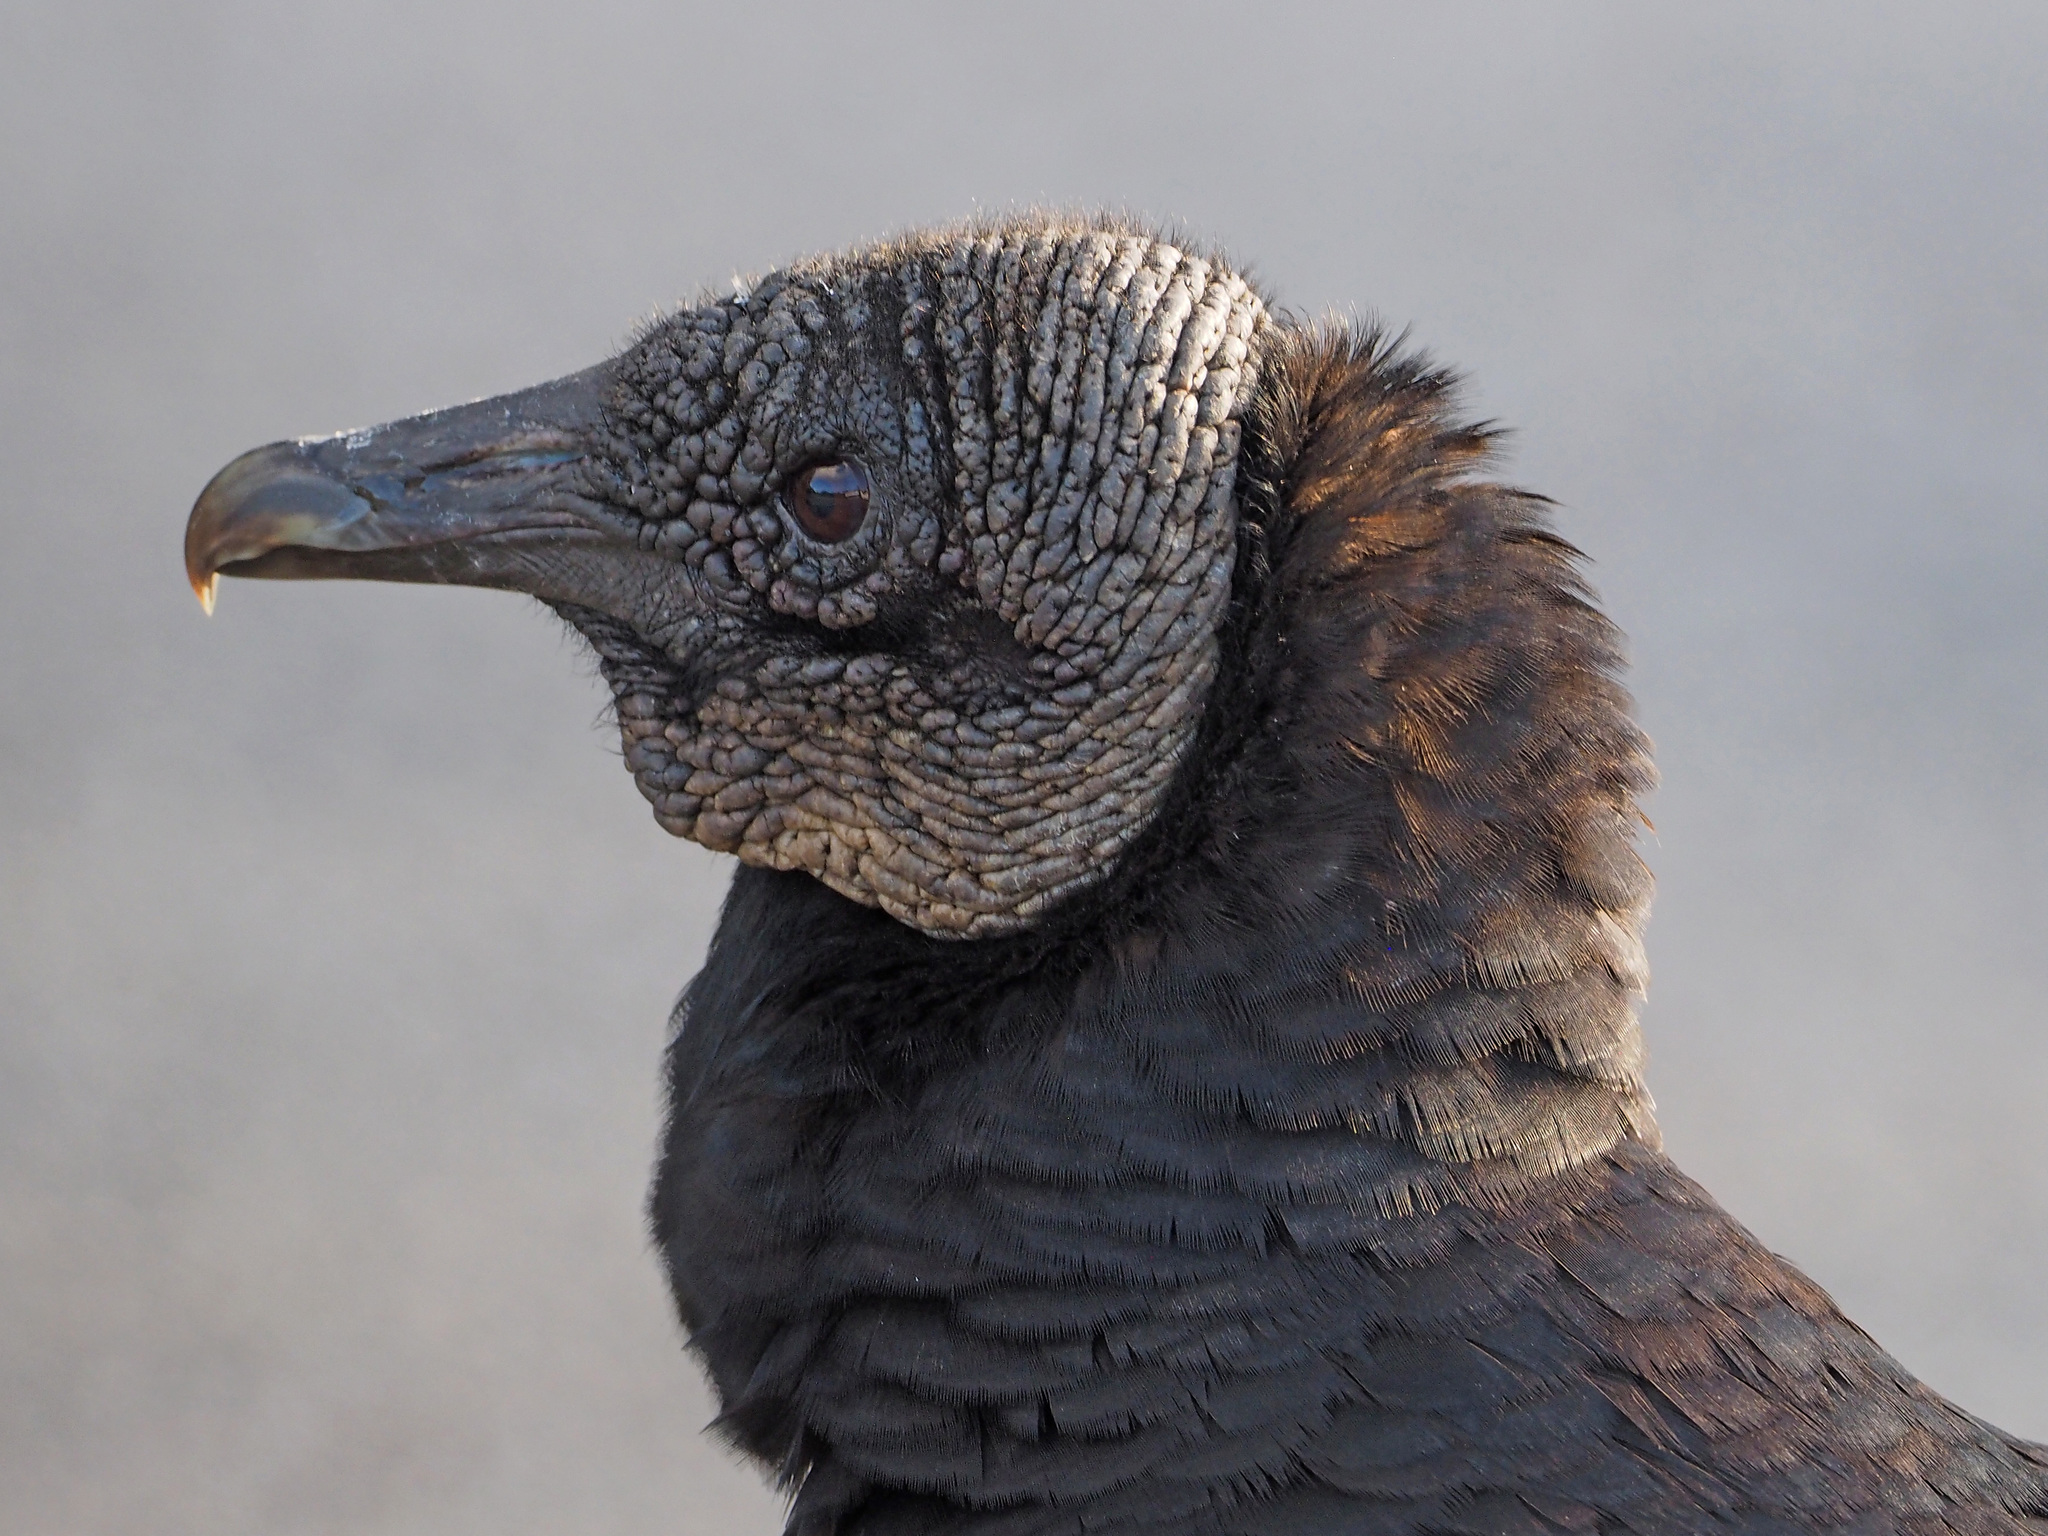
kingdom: Animalia
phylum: Chordata
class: Aves
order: Accipitriformes
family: Cathartidae
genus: Coragyps
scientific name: Coragyps atratus
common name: Black vulture
